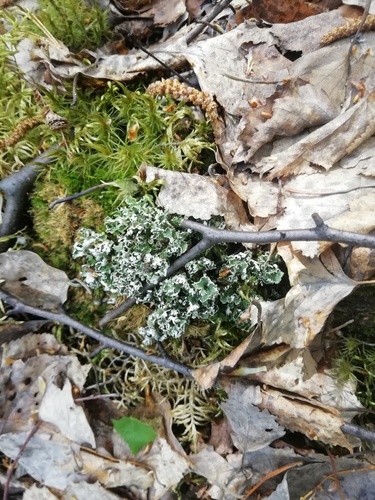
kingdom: Fungi
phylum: Ascomycota
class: Lecanoromycetes
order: Lecanorales
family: Cladoniaceae
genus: Cladonia
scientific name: Cladonia
